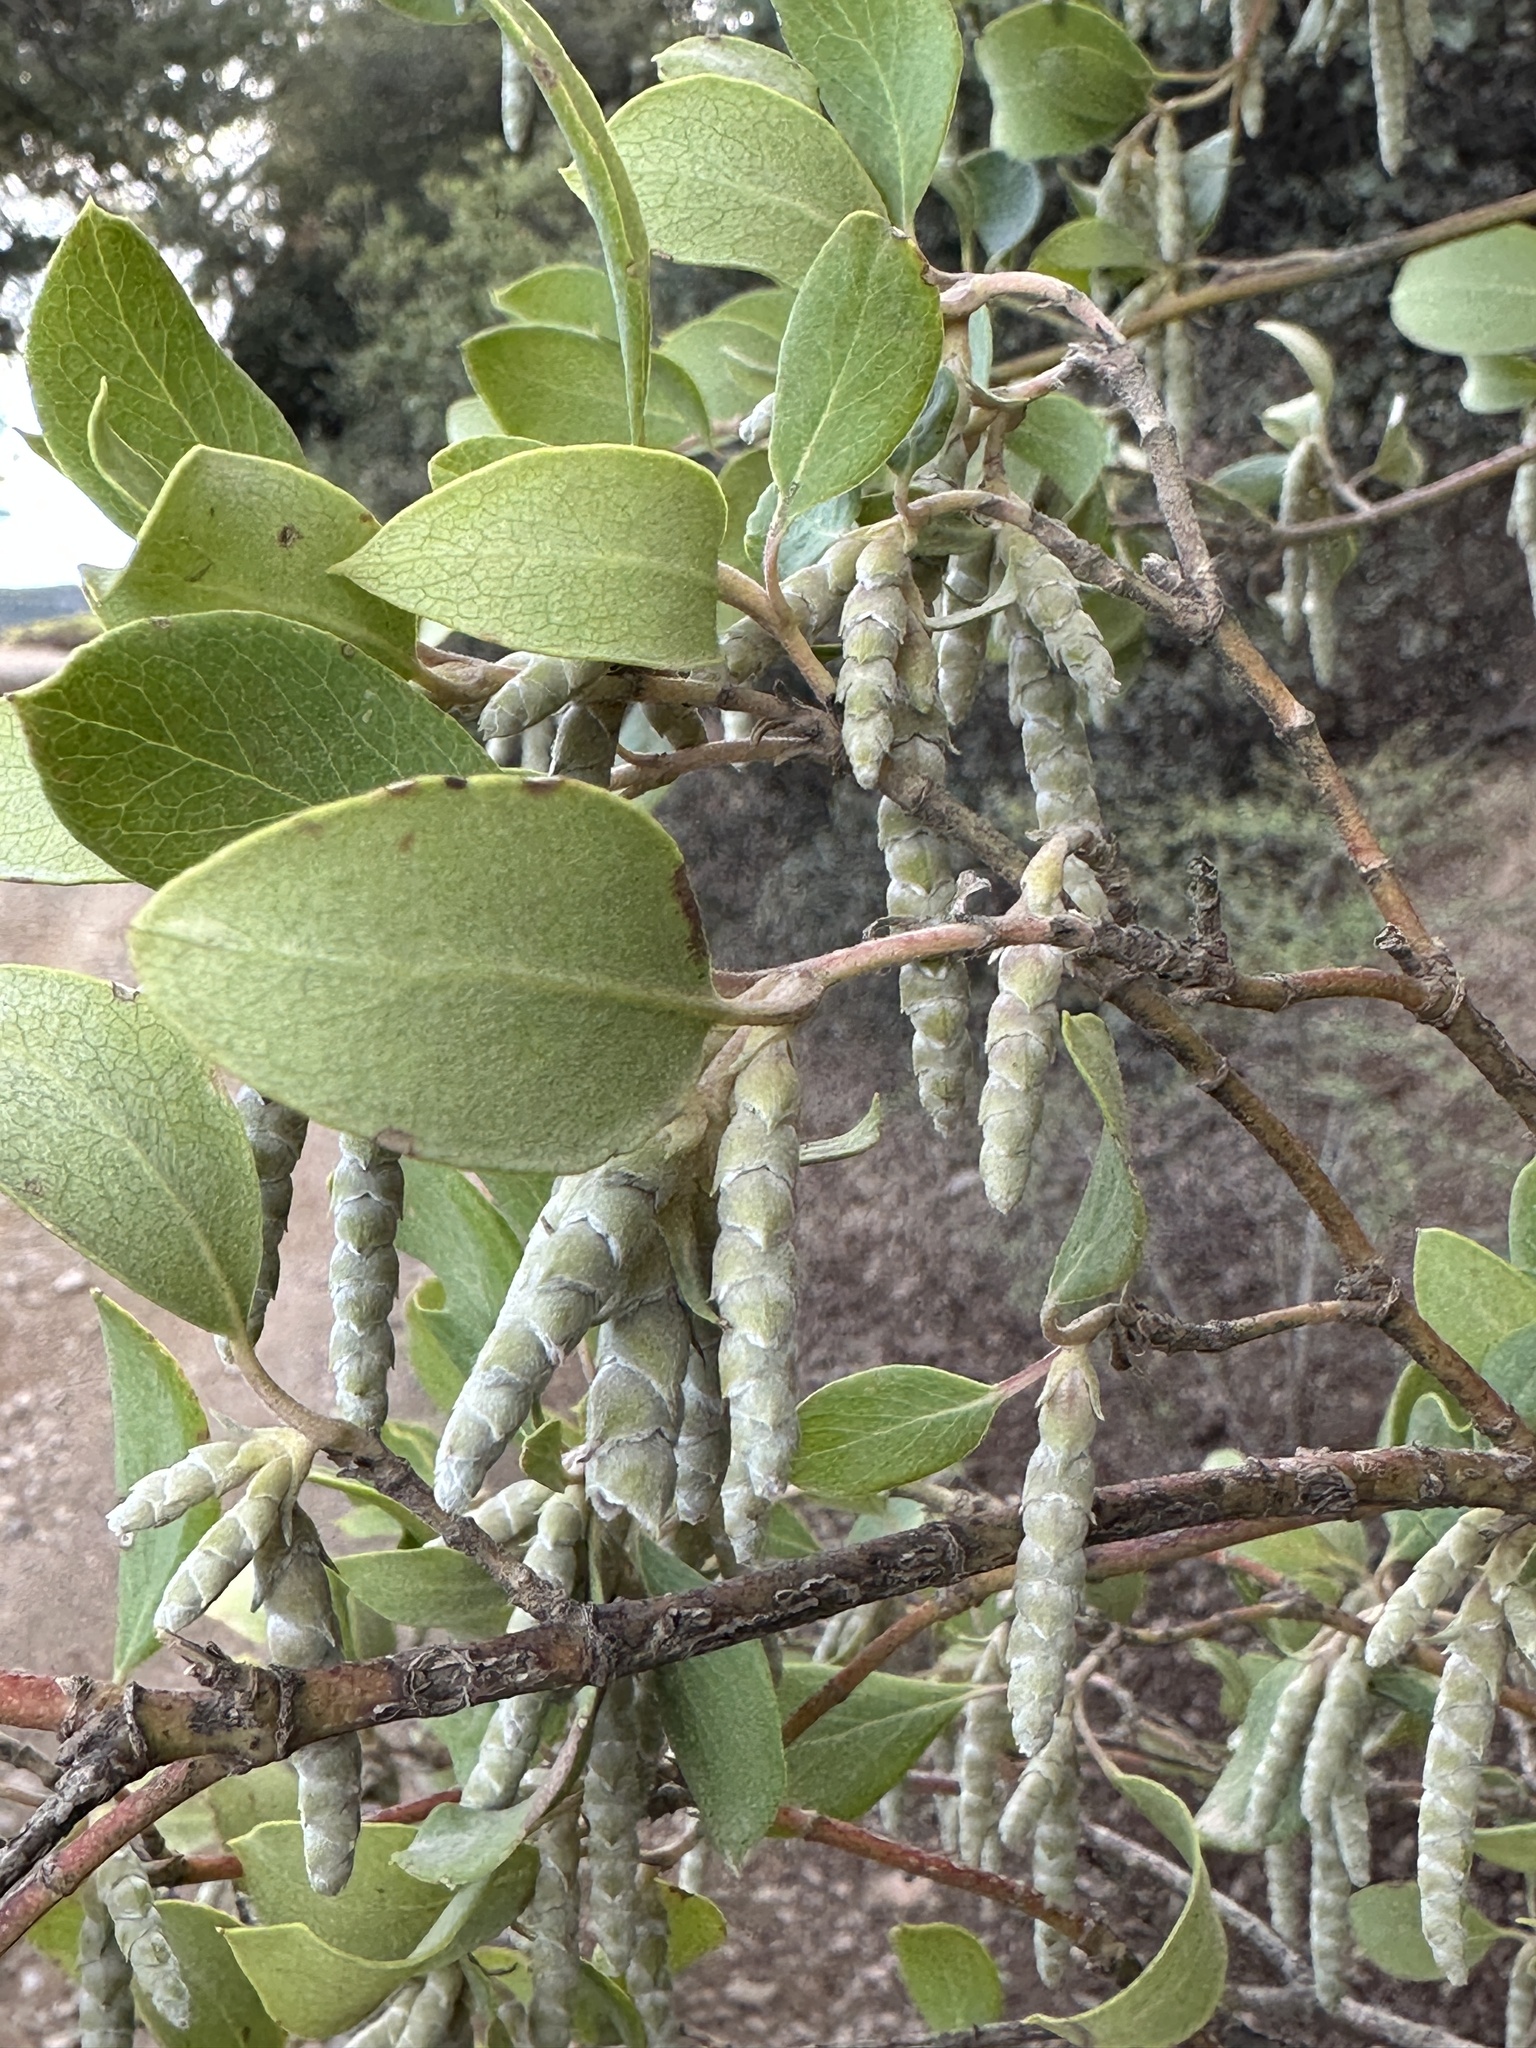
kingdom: Plantae
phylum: Tracheophyta
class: Magnoliopsida
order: Garryales
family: Garryaceae
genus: Garrya
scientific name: Garrya flavescens
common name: Ashy silk-tassel
